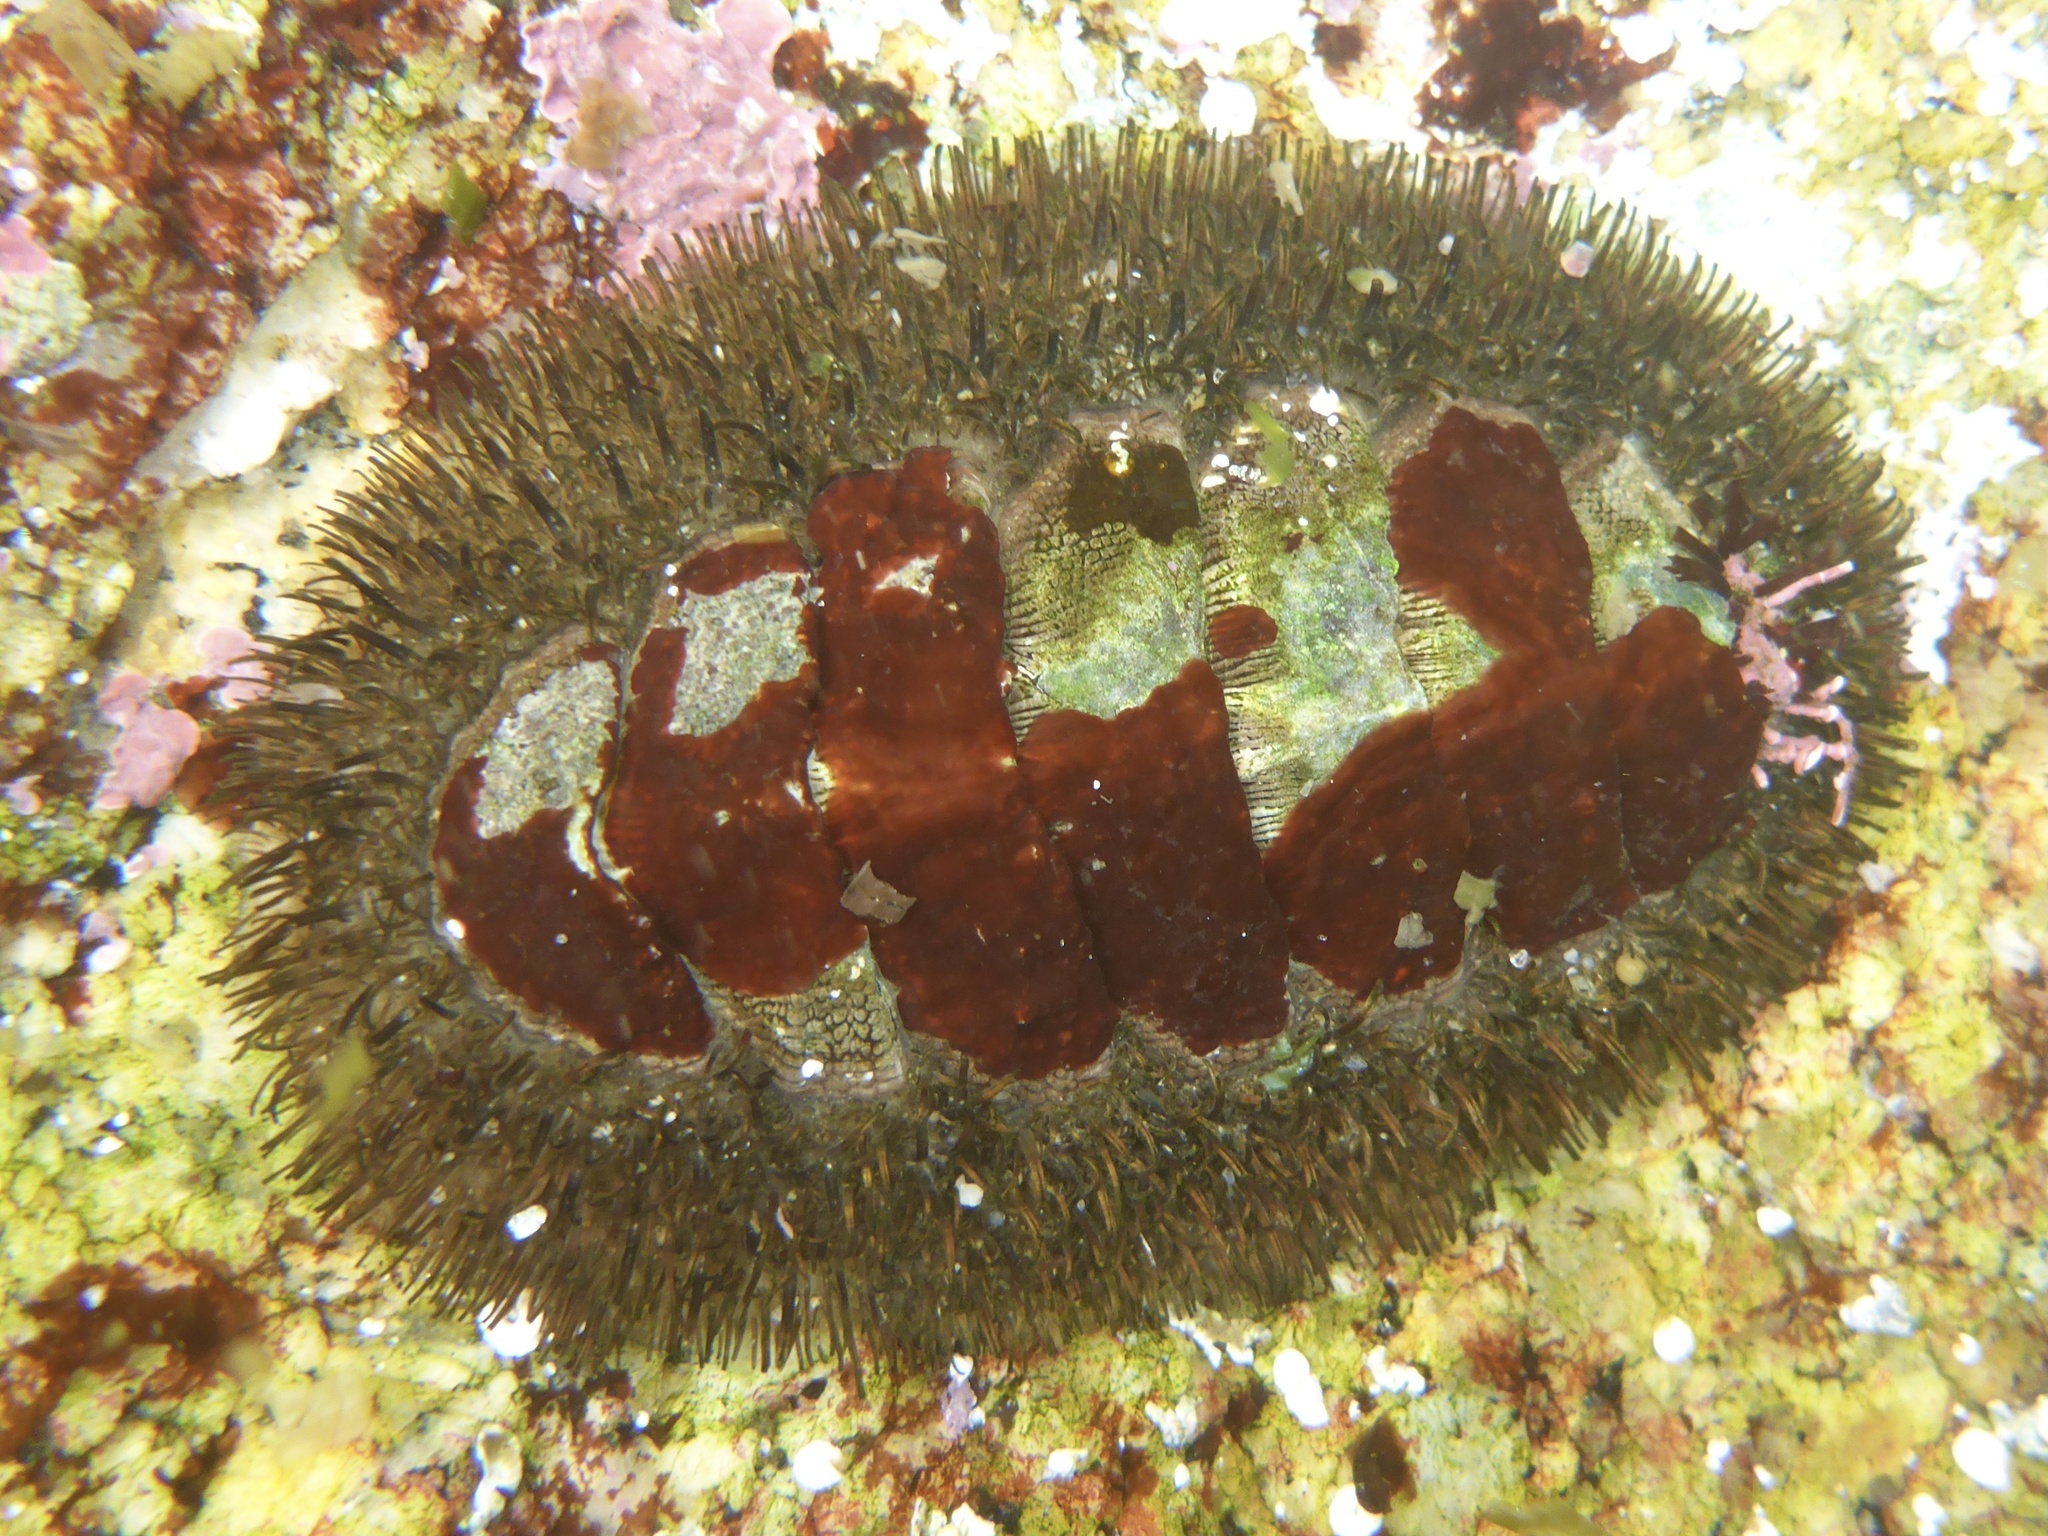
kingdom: Animalia
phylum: Mollusca
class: Polyplacophora
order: Chitonida
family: Mopaliidae
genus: Mopalia
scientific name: Mopalia muscosa
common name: Mossy chiton
